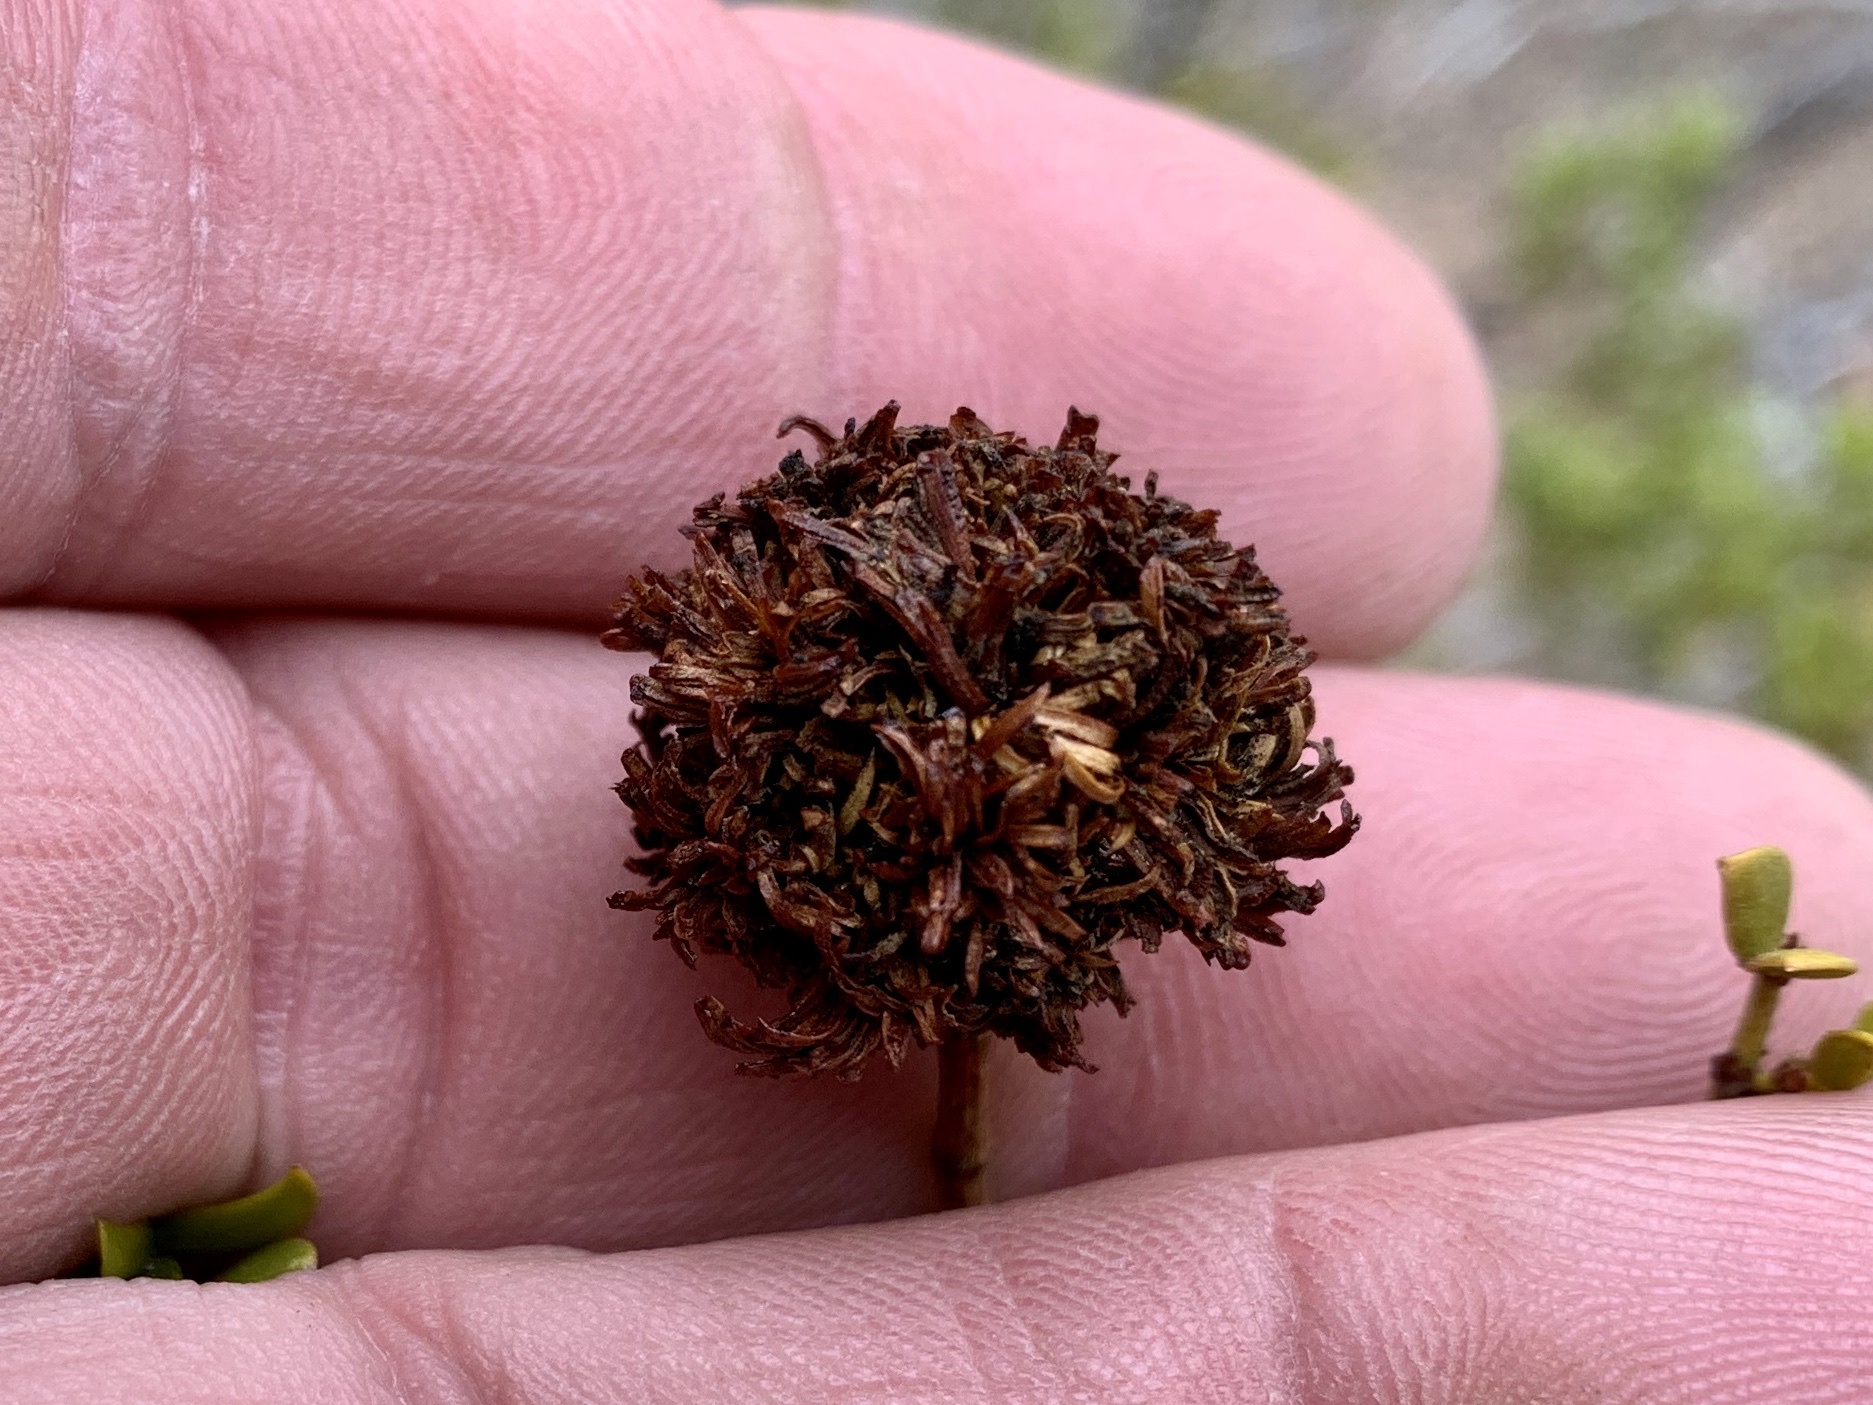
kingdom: Animalia
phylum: Arthropoda
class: Insecta
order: Diptera
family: Cecidomyiidae
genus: Asphondylia
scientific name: Asphondylia auripila
